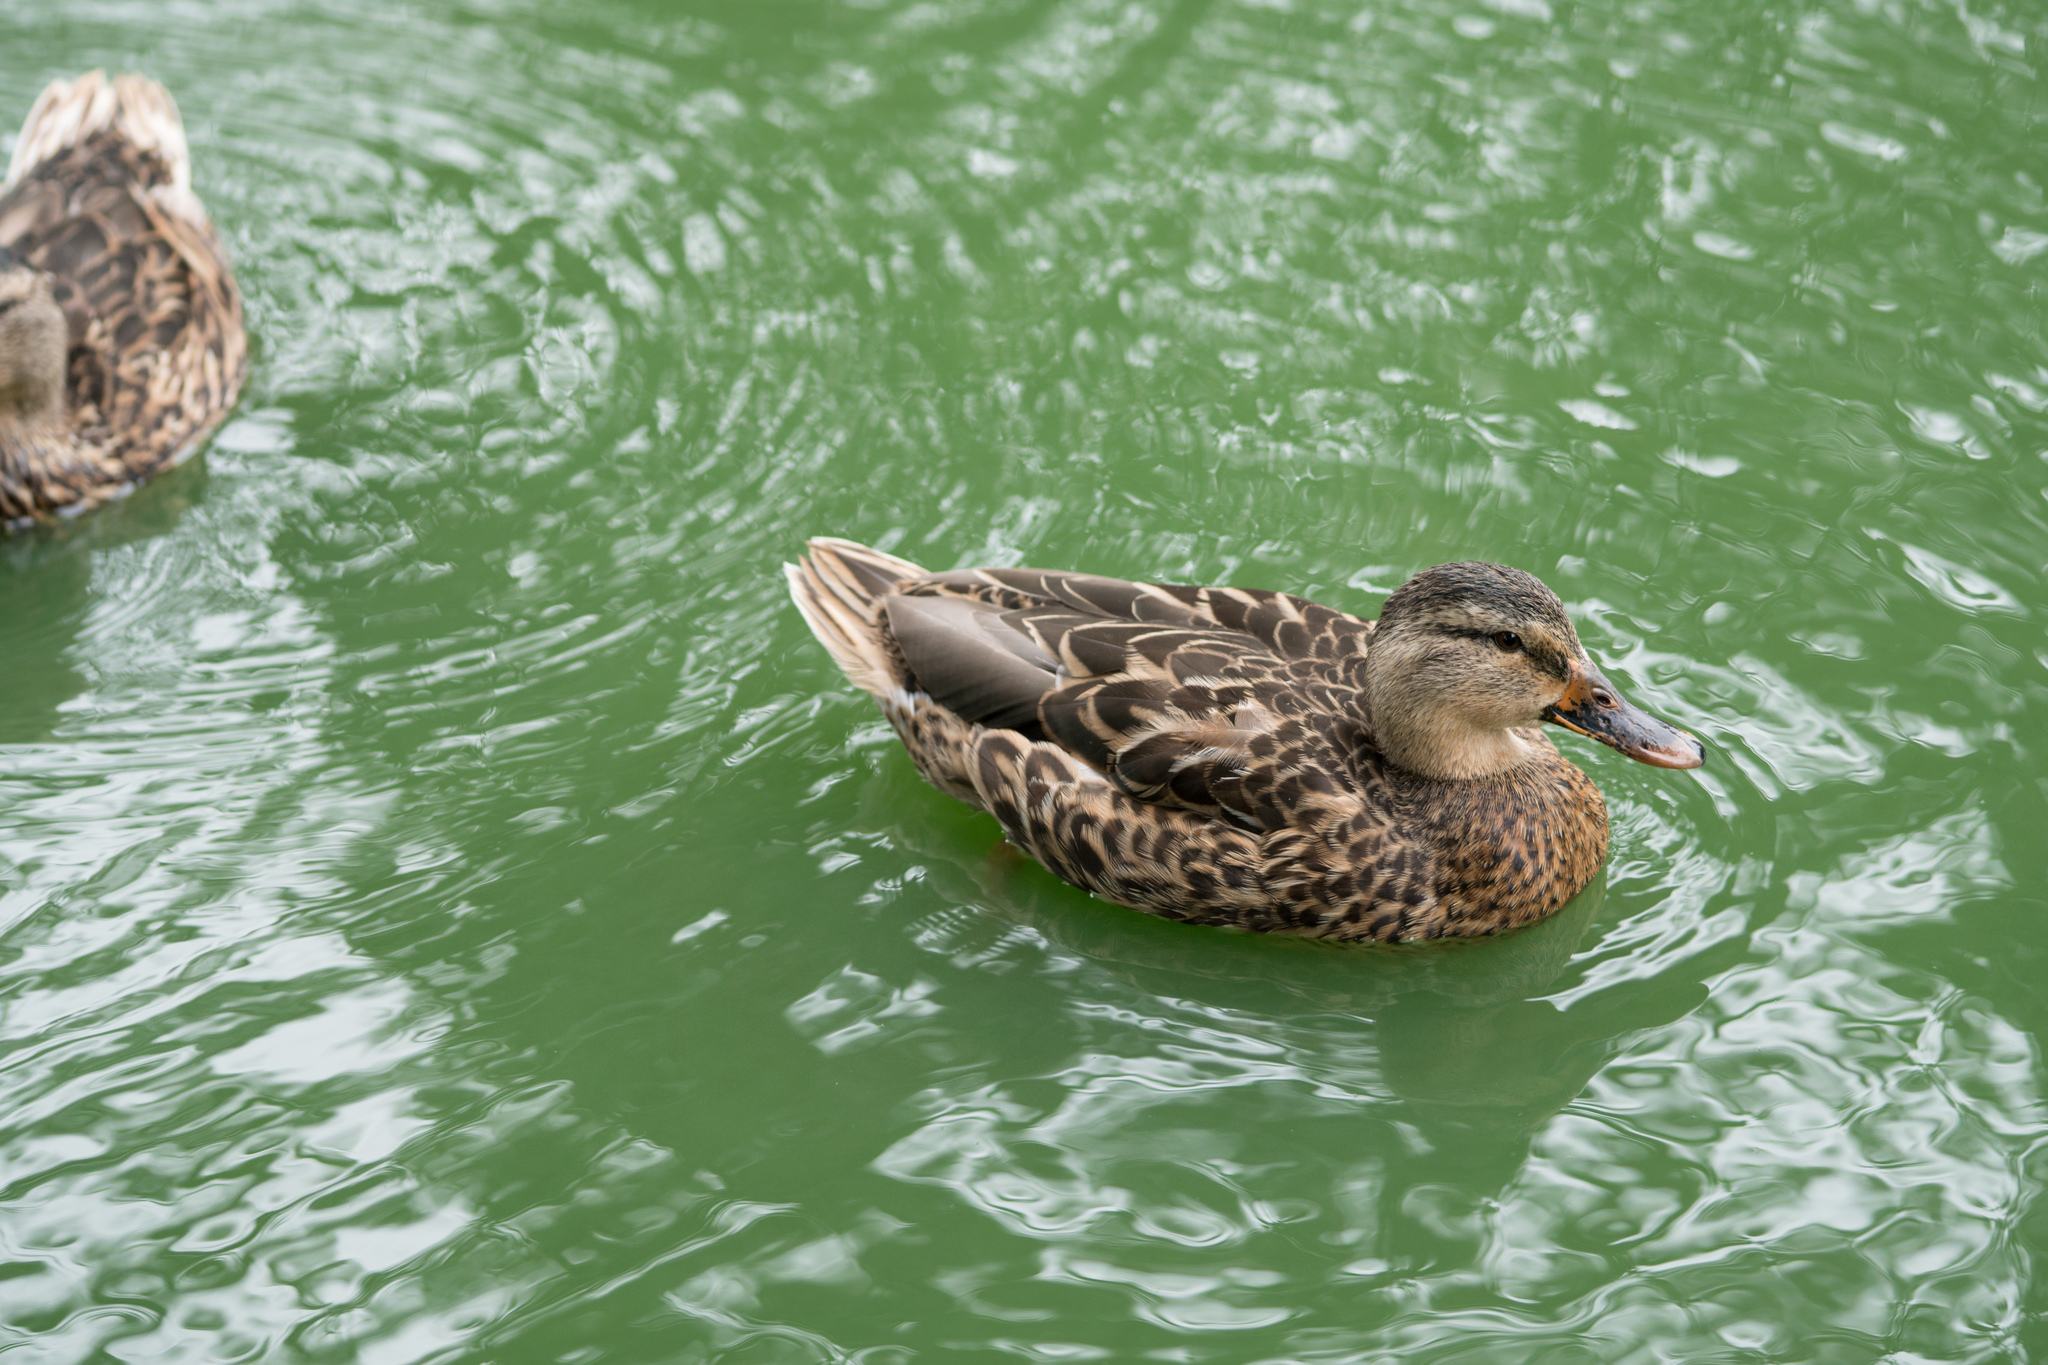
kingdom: Animalia
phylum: Chordata
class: Aves
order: Anseriformes
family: Anatidae
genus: Anas
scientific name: Anas platyrhynchos
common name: Mallard
